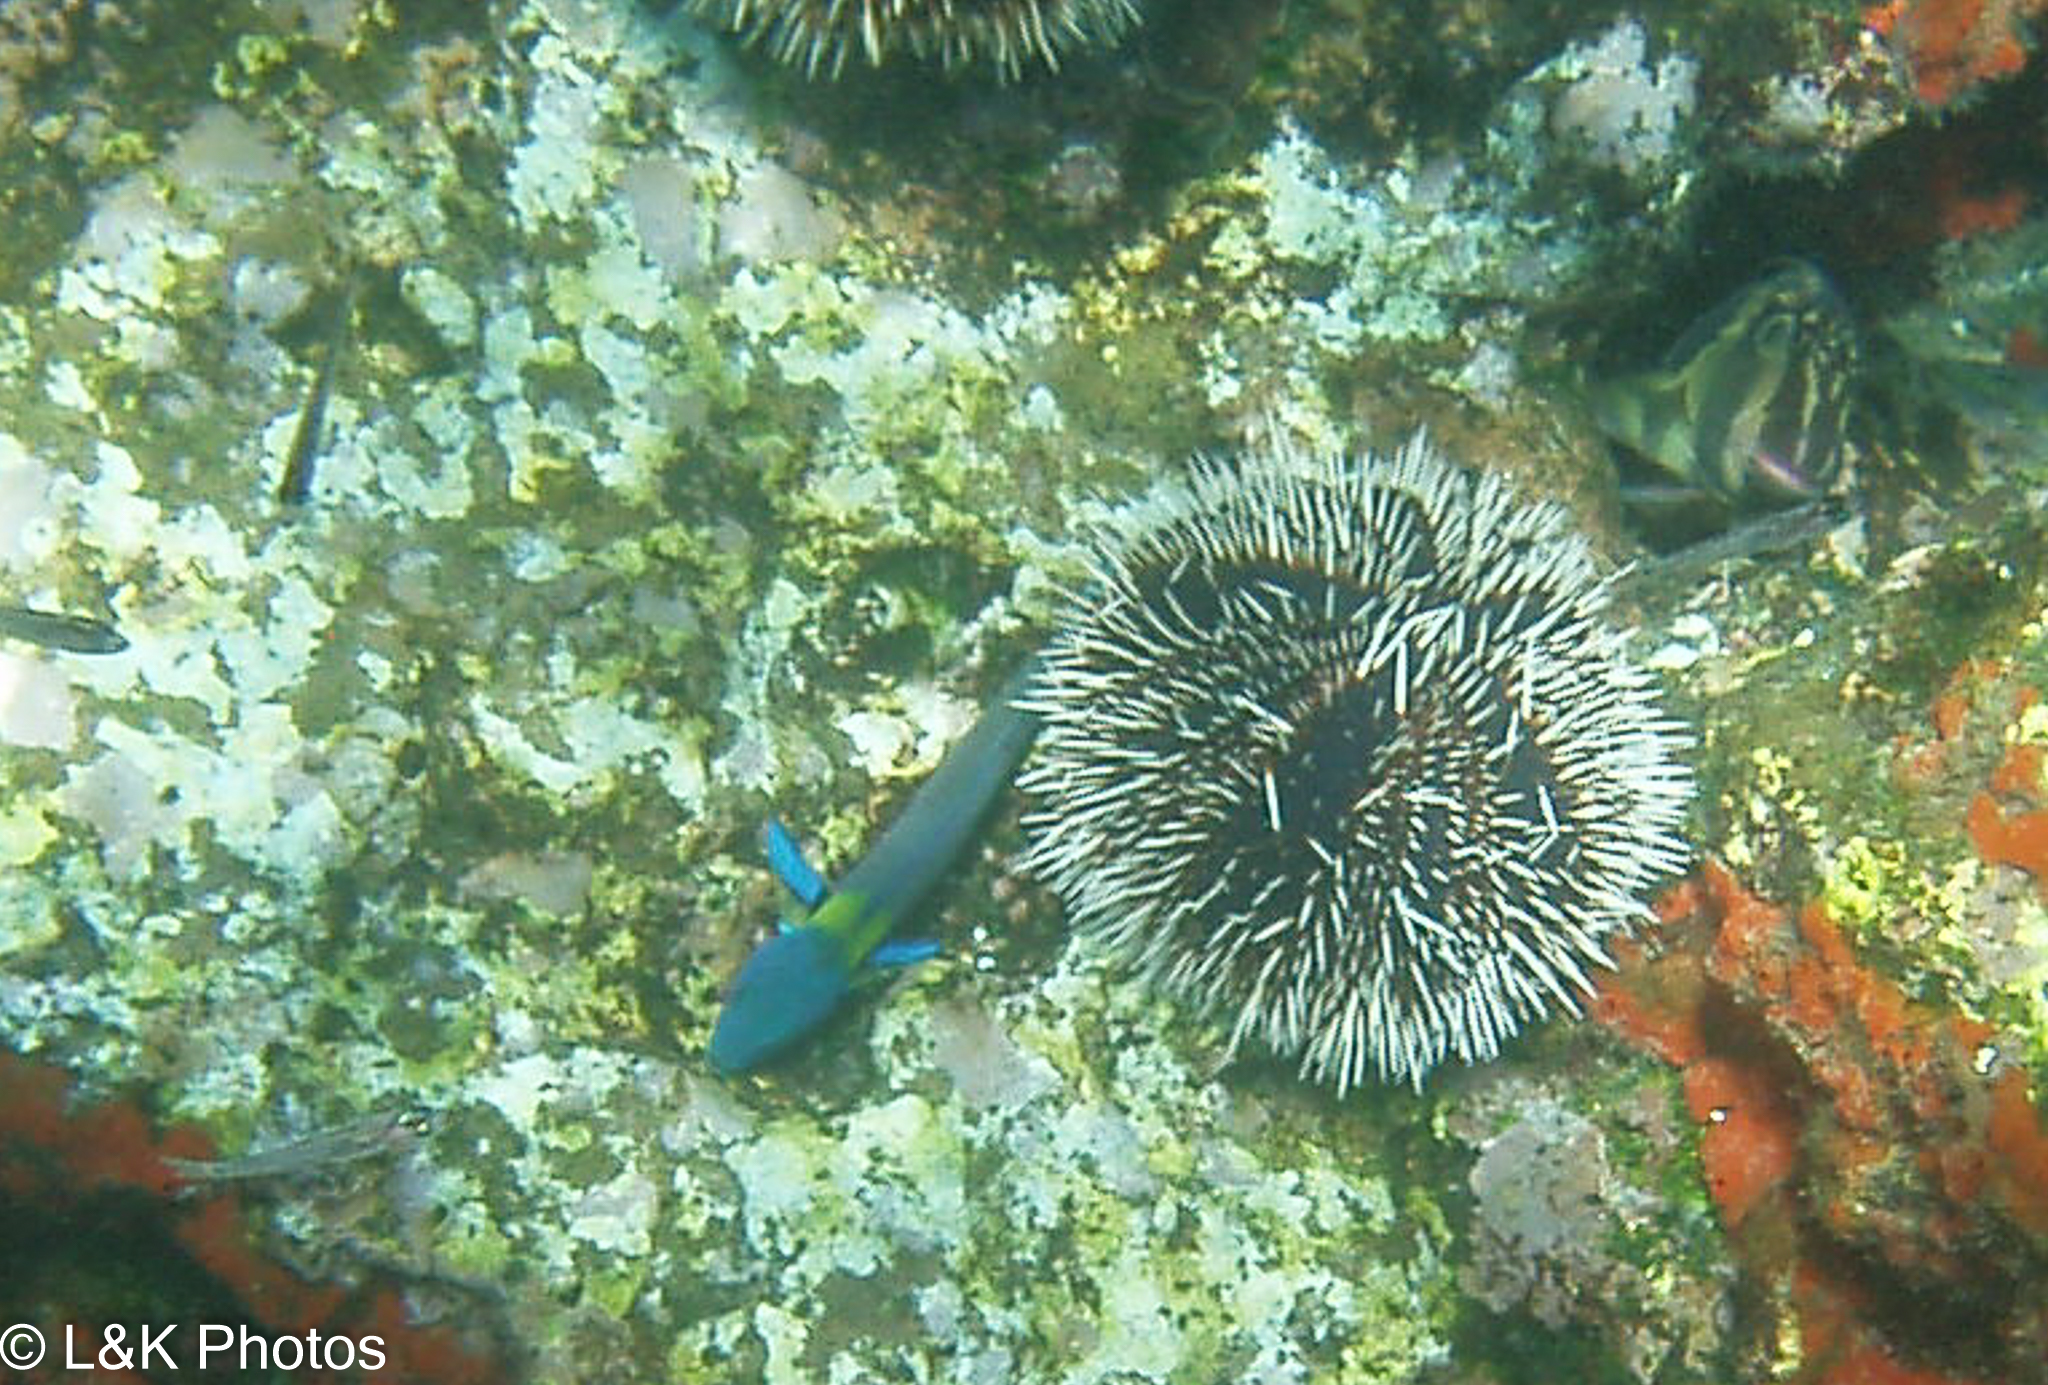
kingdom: Animalia
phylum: Chordata
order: Perciformes
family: Labridae
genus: Thalassoma
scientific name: Thalassoma lucasanum
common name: Cortez rainbow wrasse
